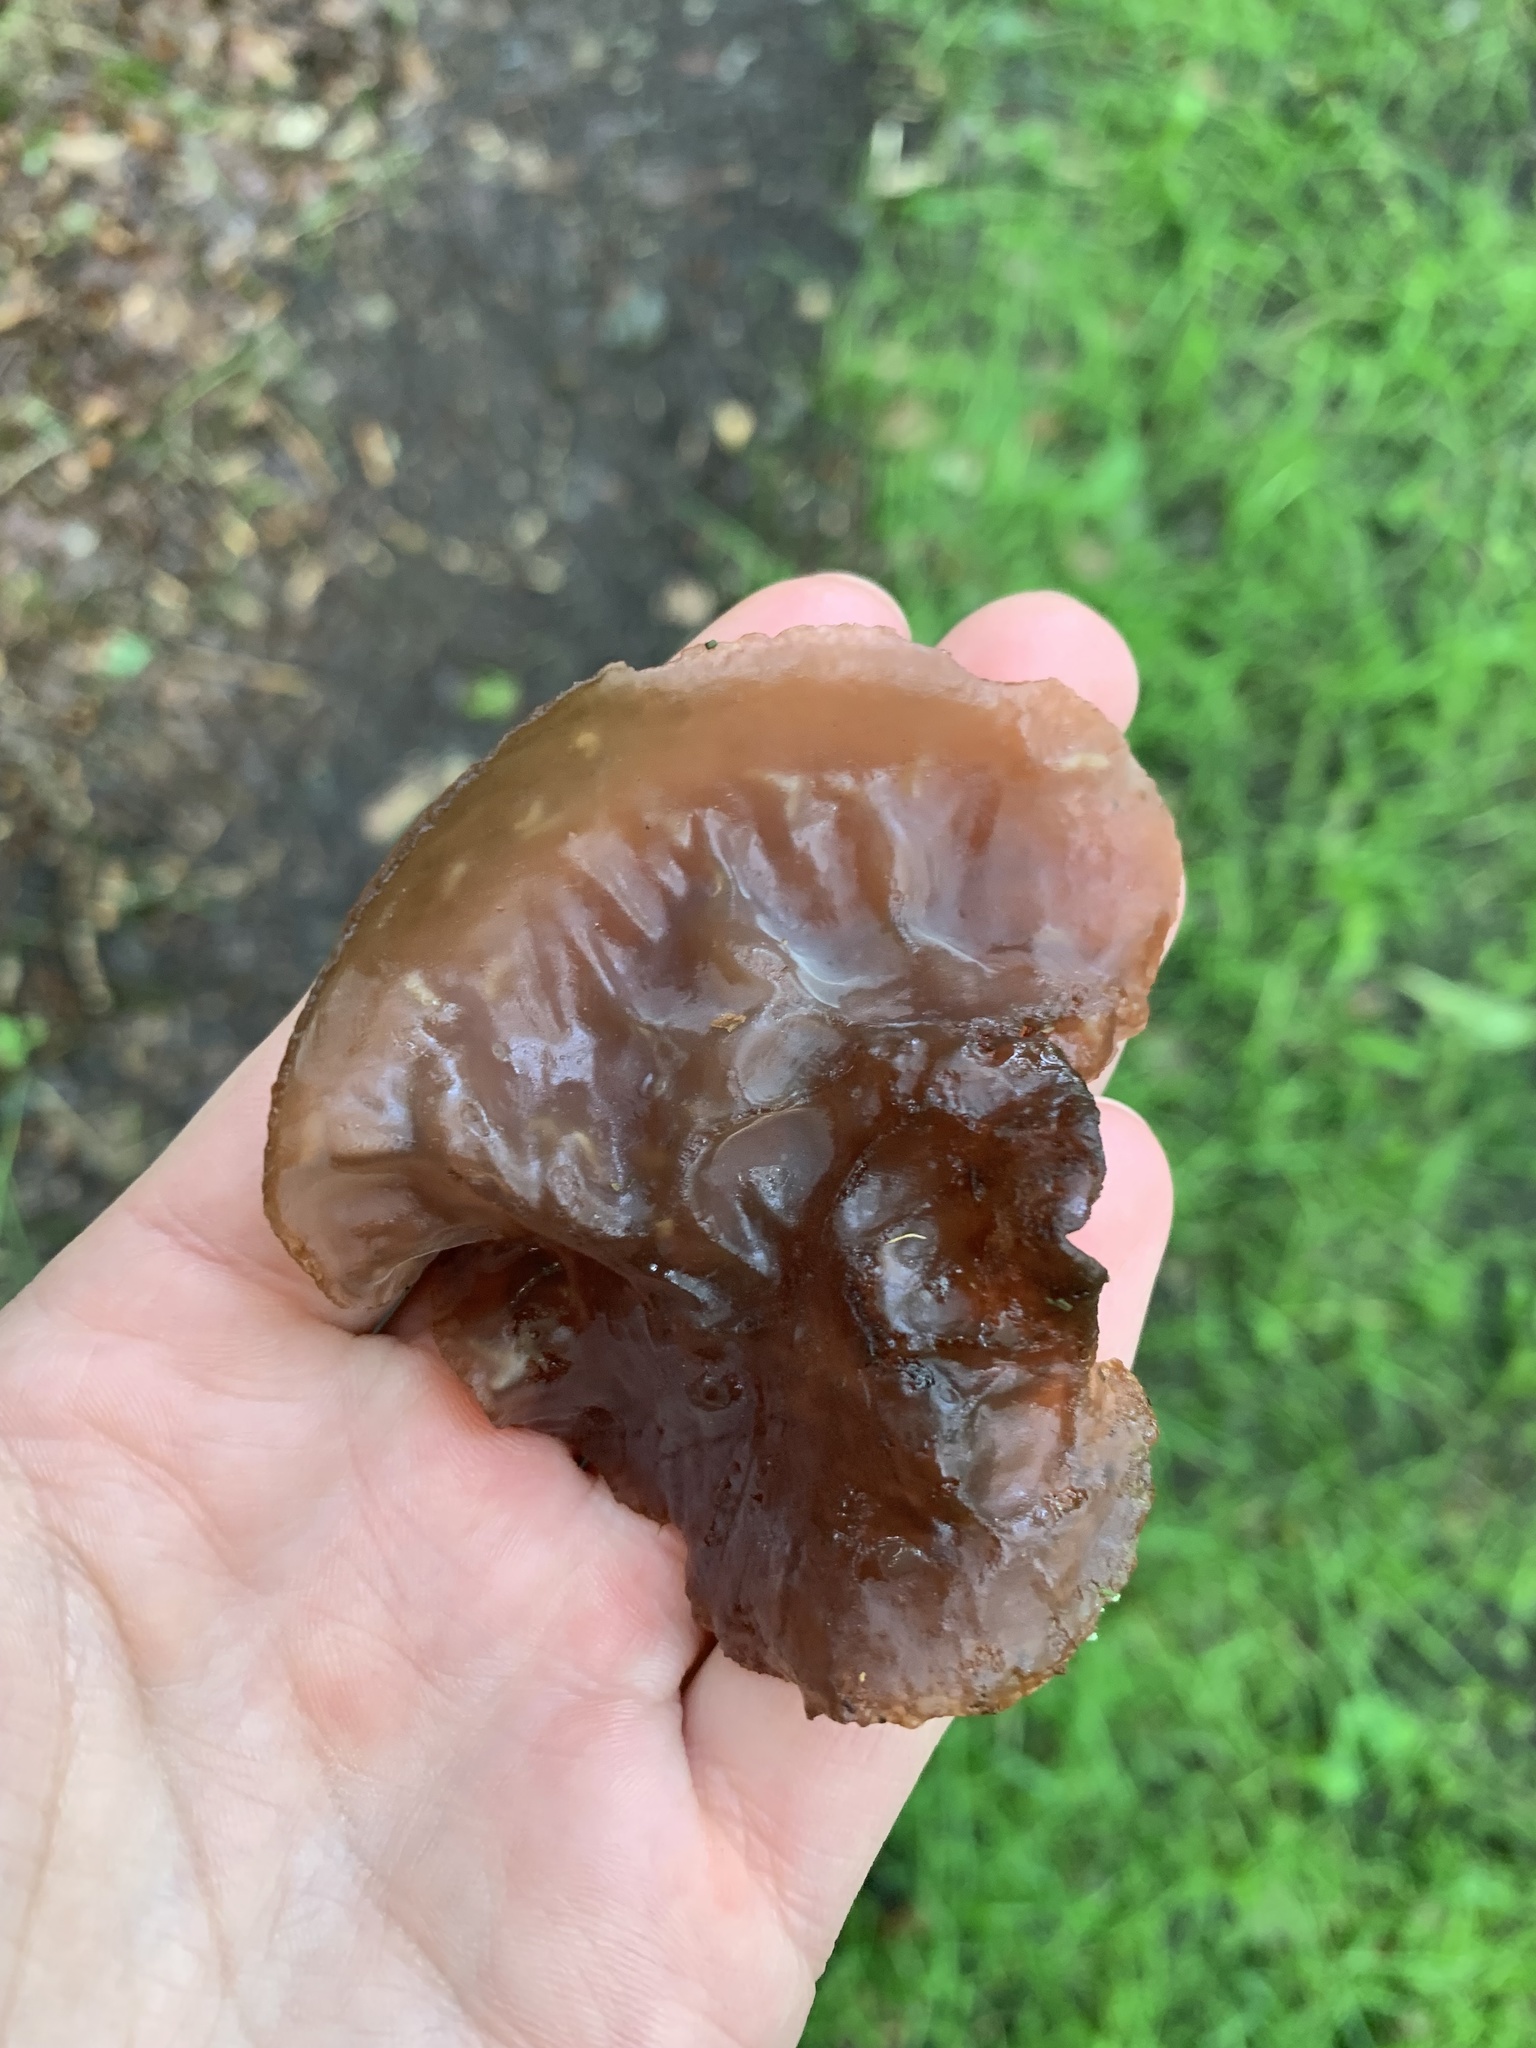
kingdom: Fungi
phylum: Basidiomycota
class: Agaricomycetes
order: Auriculariales
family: Auriculariaceae
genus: Auricularia
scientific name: Auricularia auricula-judae
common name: Jelly ear
